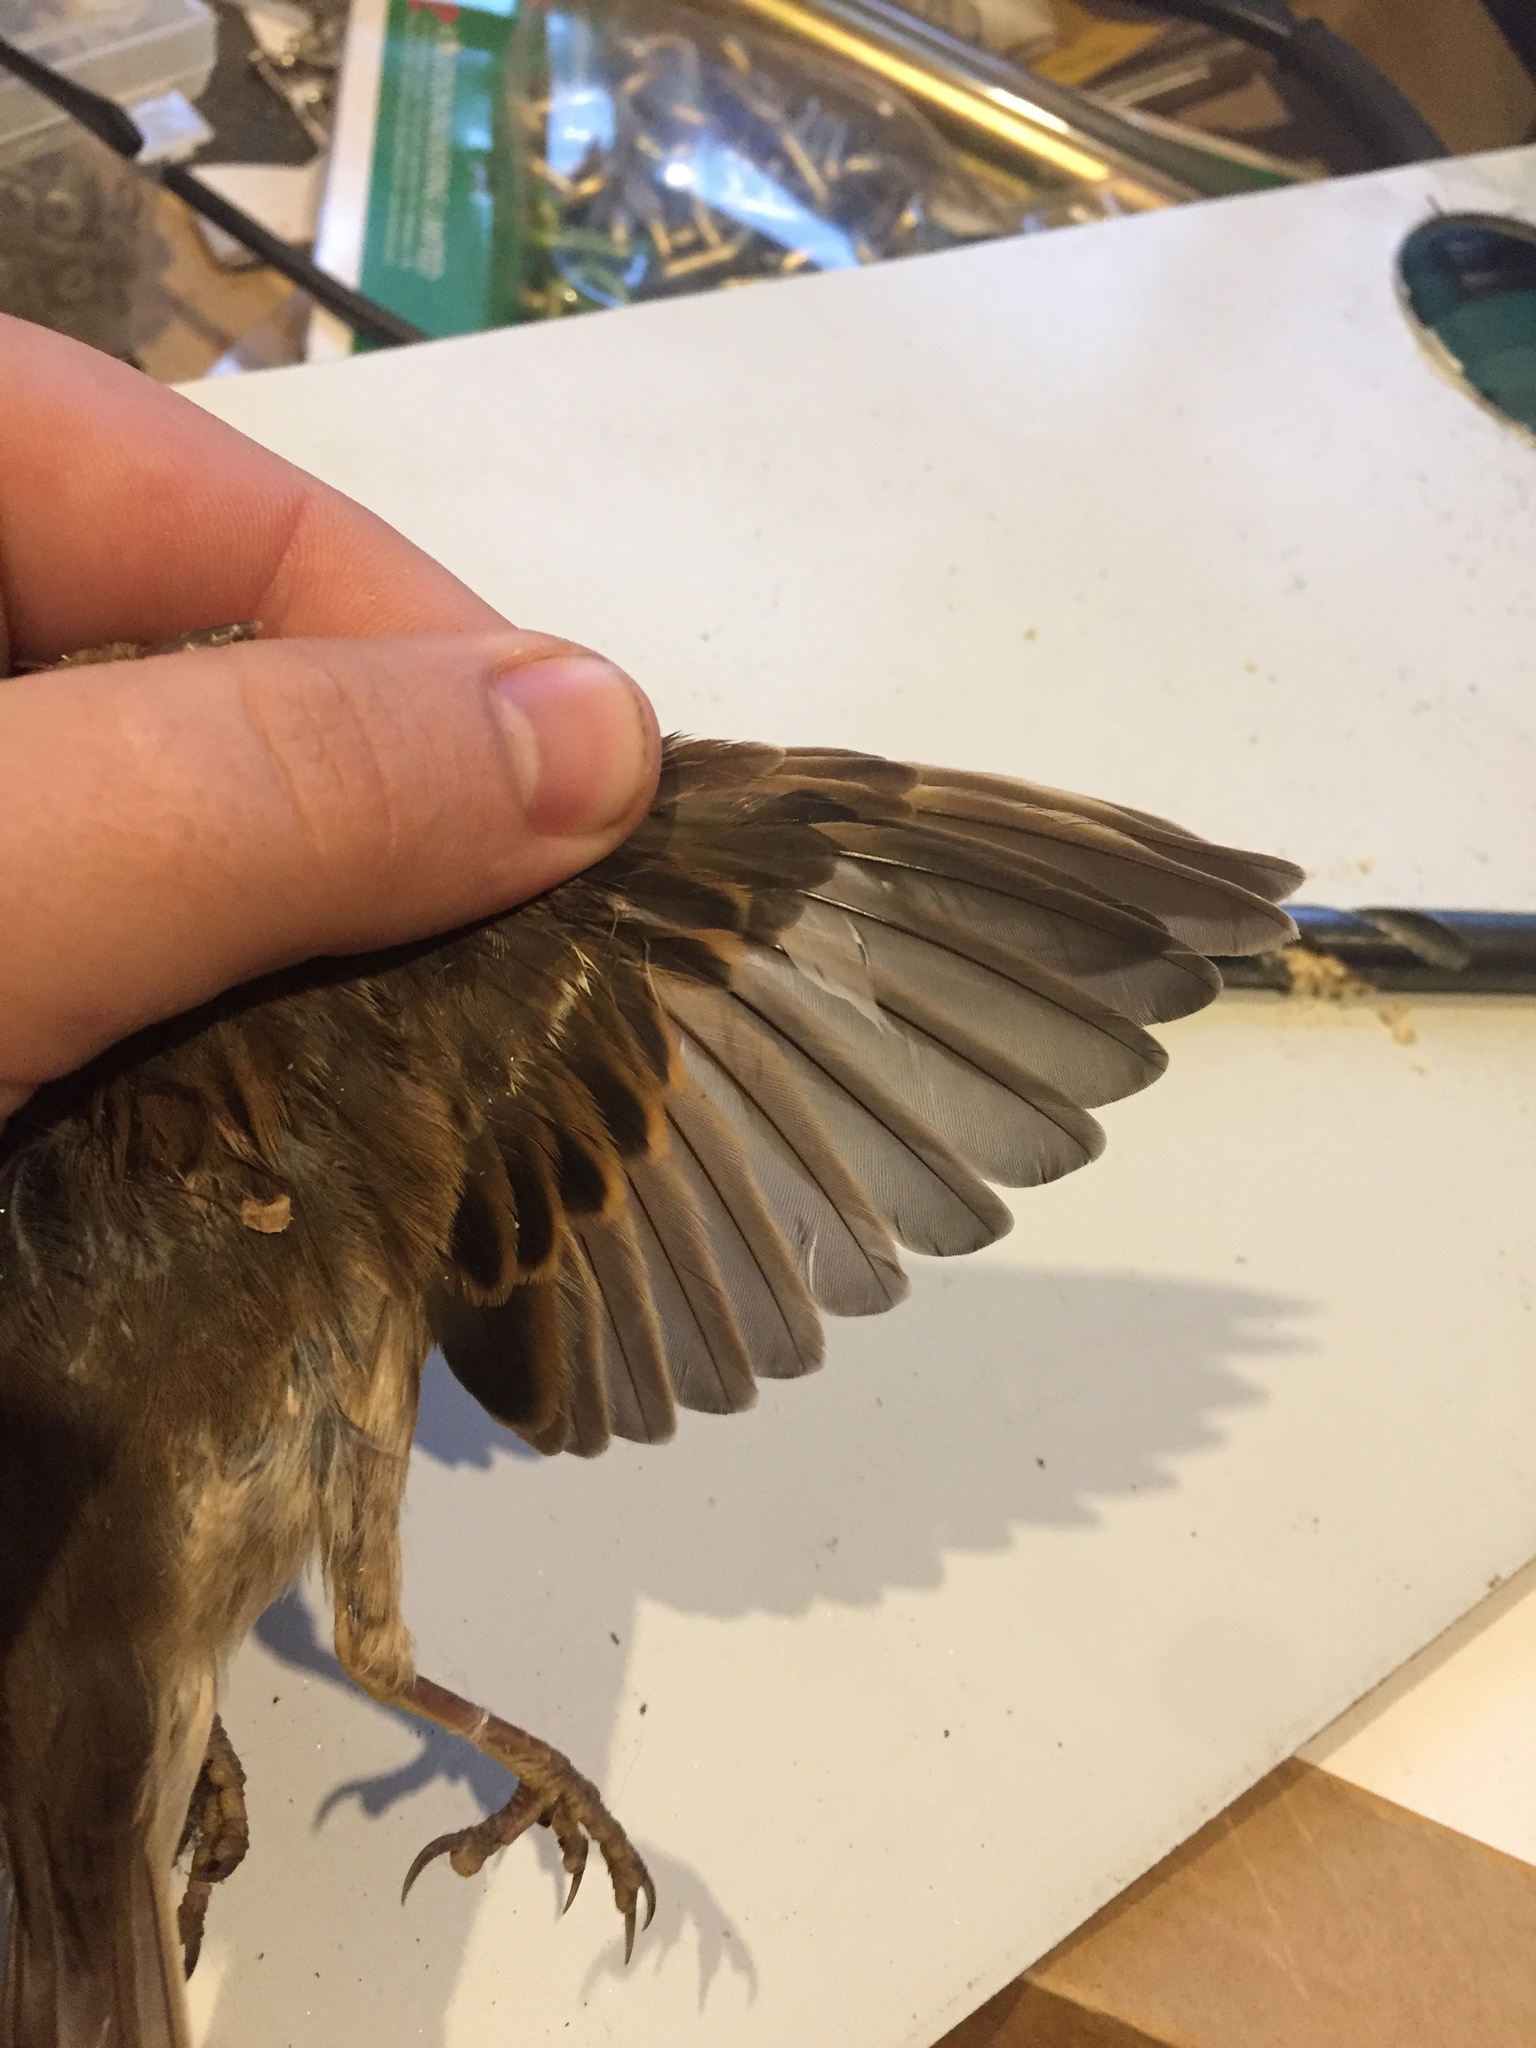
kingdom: Animalia
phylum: Chordata
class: Aves
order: Passeriformes
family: Passeridae
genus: Passer
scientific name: Passer domesticus
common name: House sparrow
